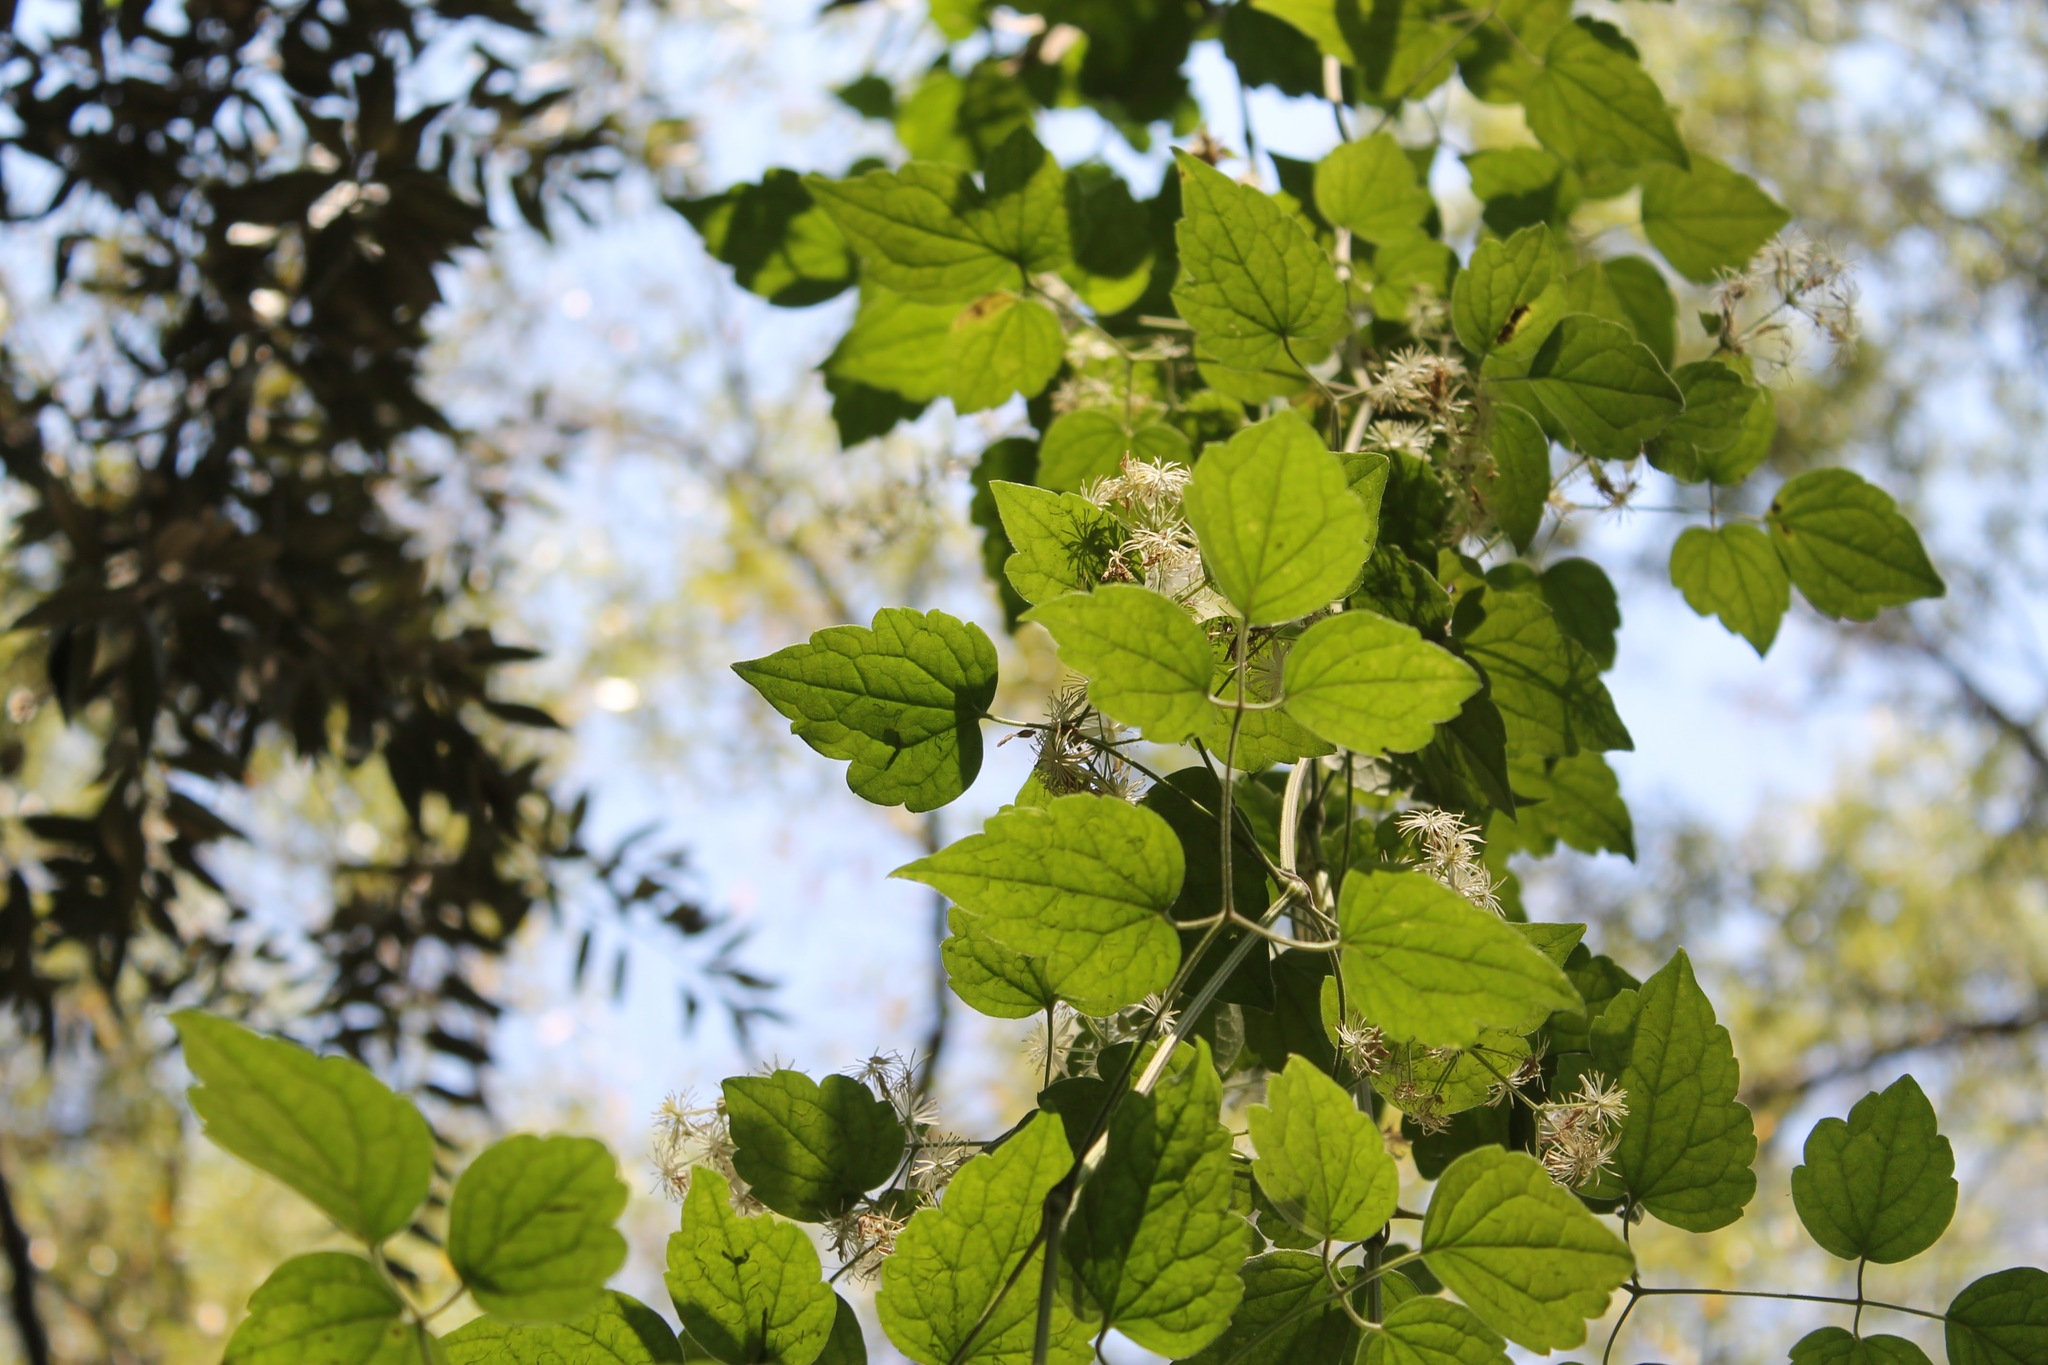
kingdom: Plantae
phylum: Tracheophyta
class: Magnoliopsida
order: Ranunculales
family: Ranunculaceae
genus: Clematis
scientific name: Clematis dioica
